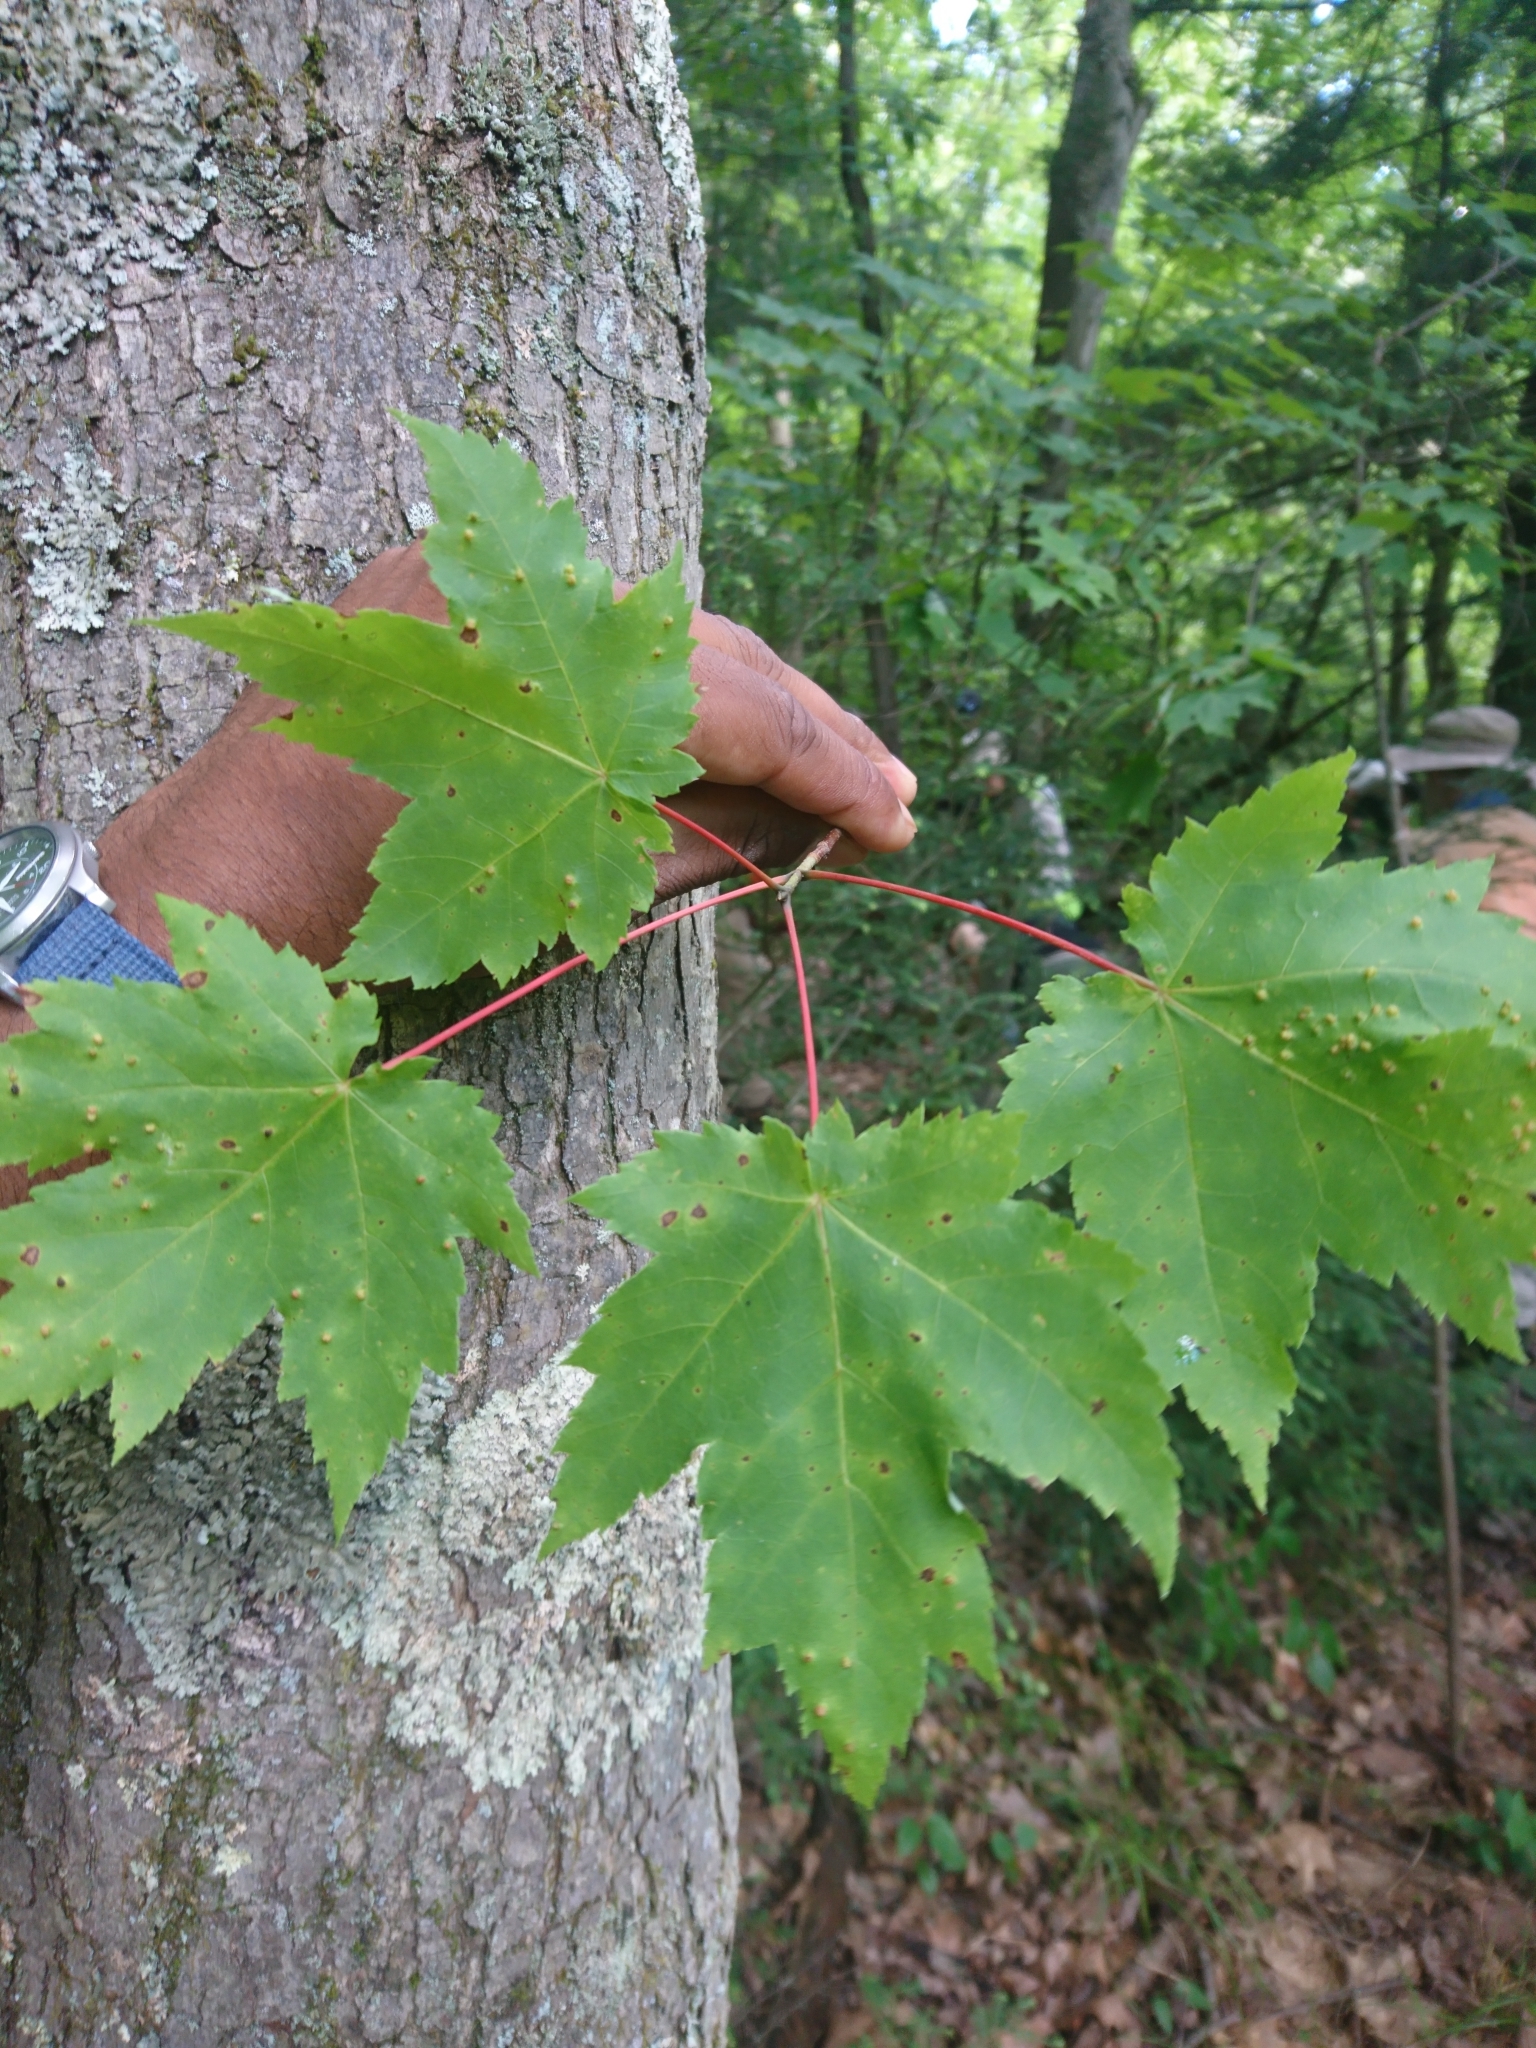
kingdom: Plantae
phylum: Tracheophyta
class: Magnoliopsida
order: Sapindales
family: Sapindaceae
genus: Acer
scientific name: Acer rubrum
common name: Red maple
